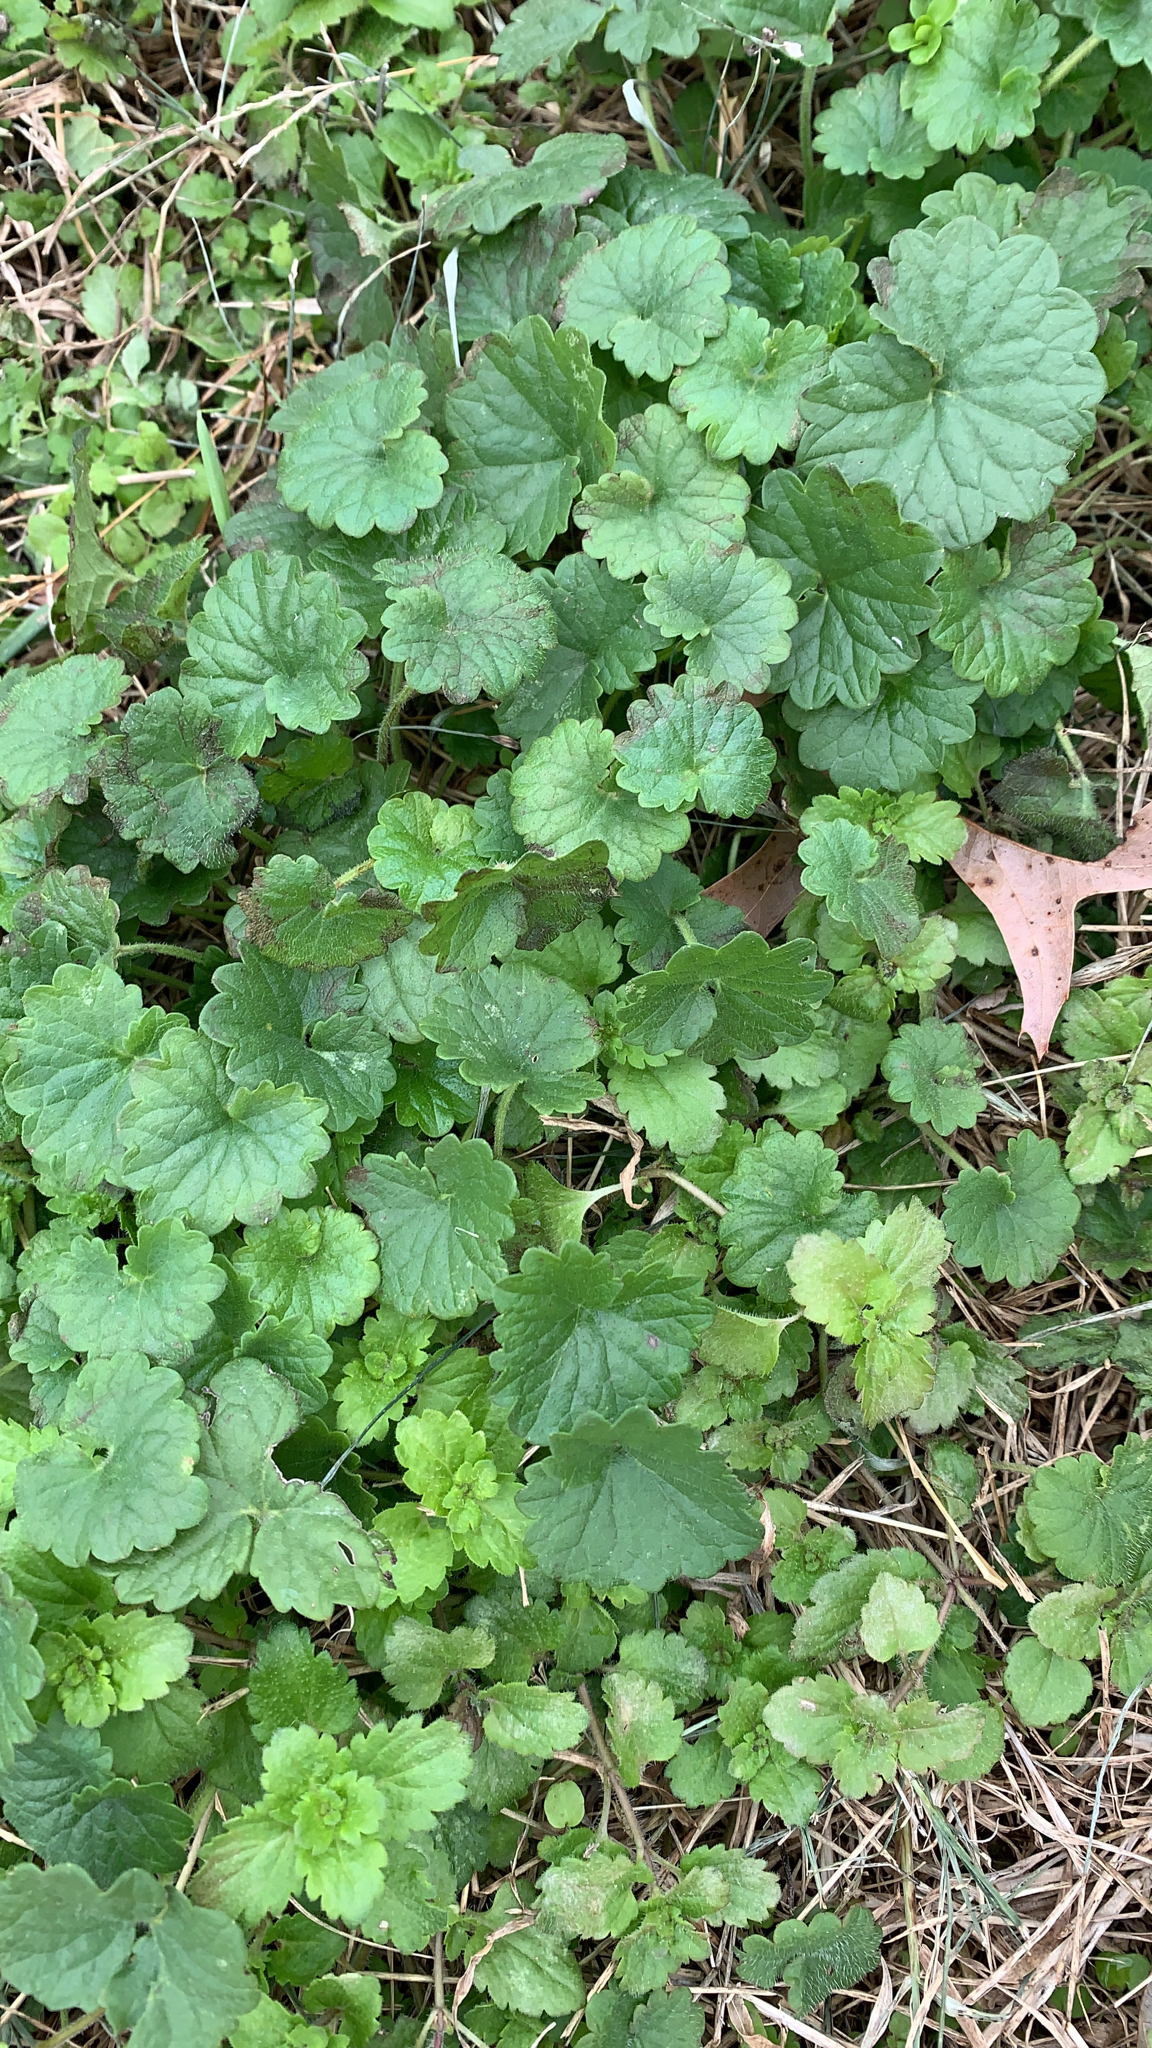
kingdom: Plantae
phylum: Tracheophyta
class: Magnoliopsida
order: Lamiales
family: Lamiaceae
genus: Glechoma
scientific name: Glechoma hederacea
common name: Ground ivy
